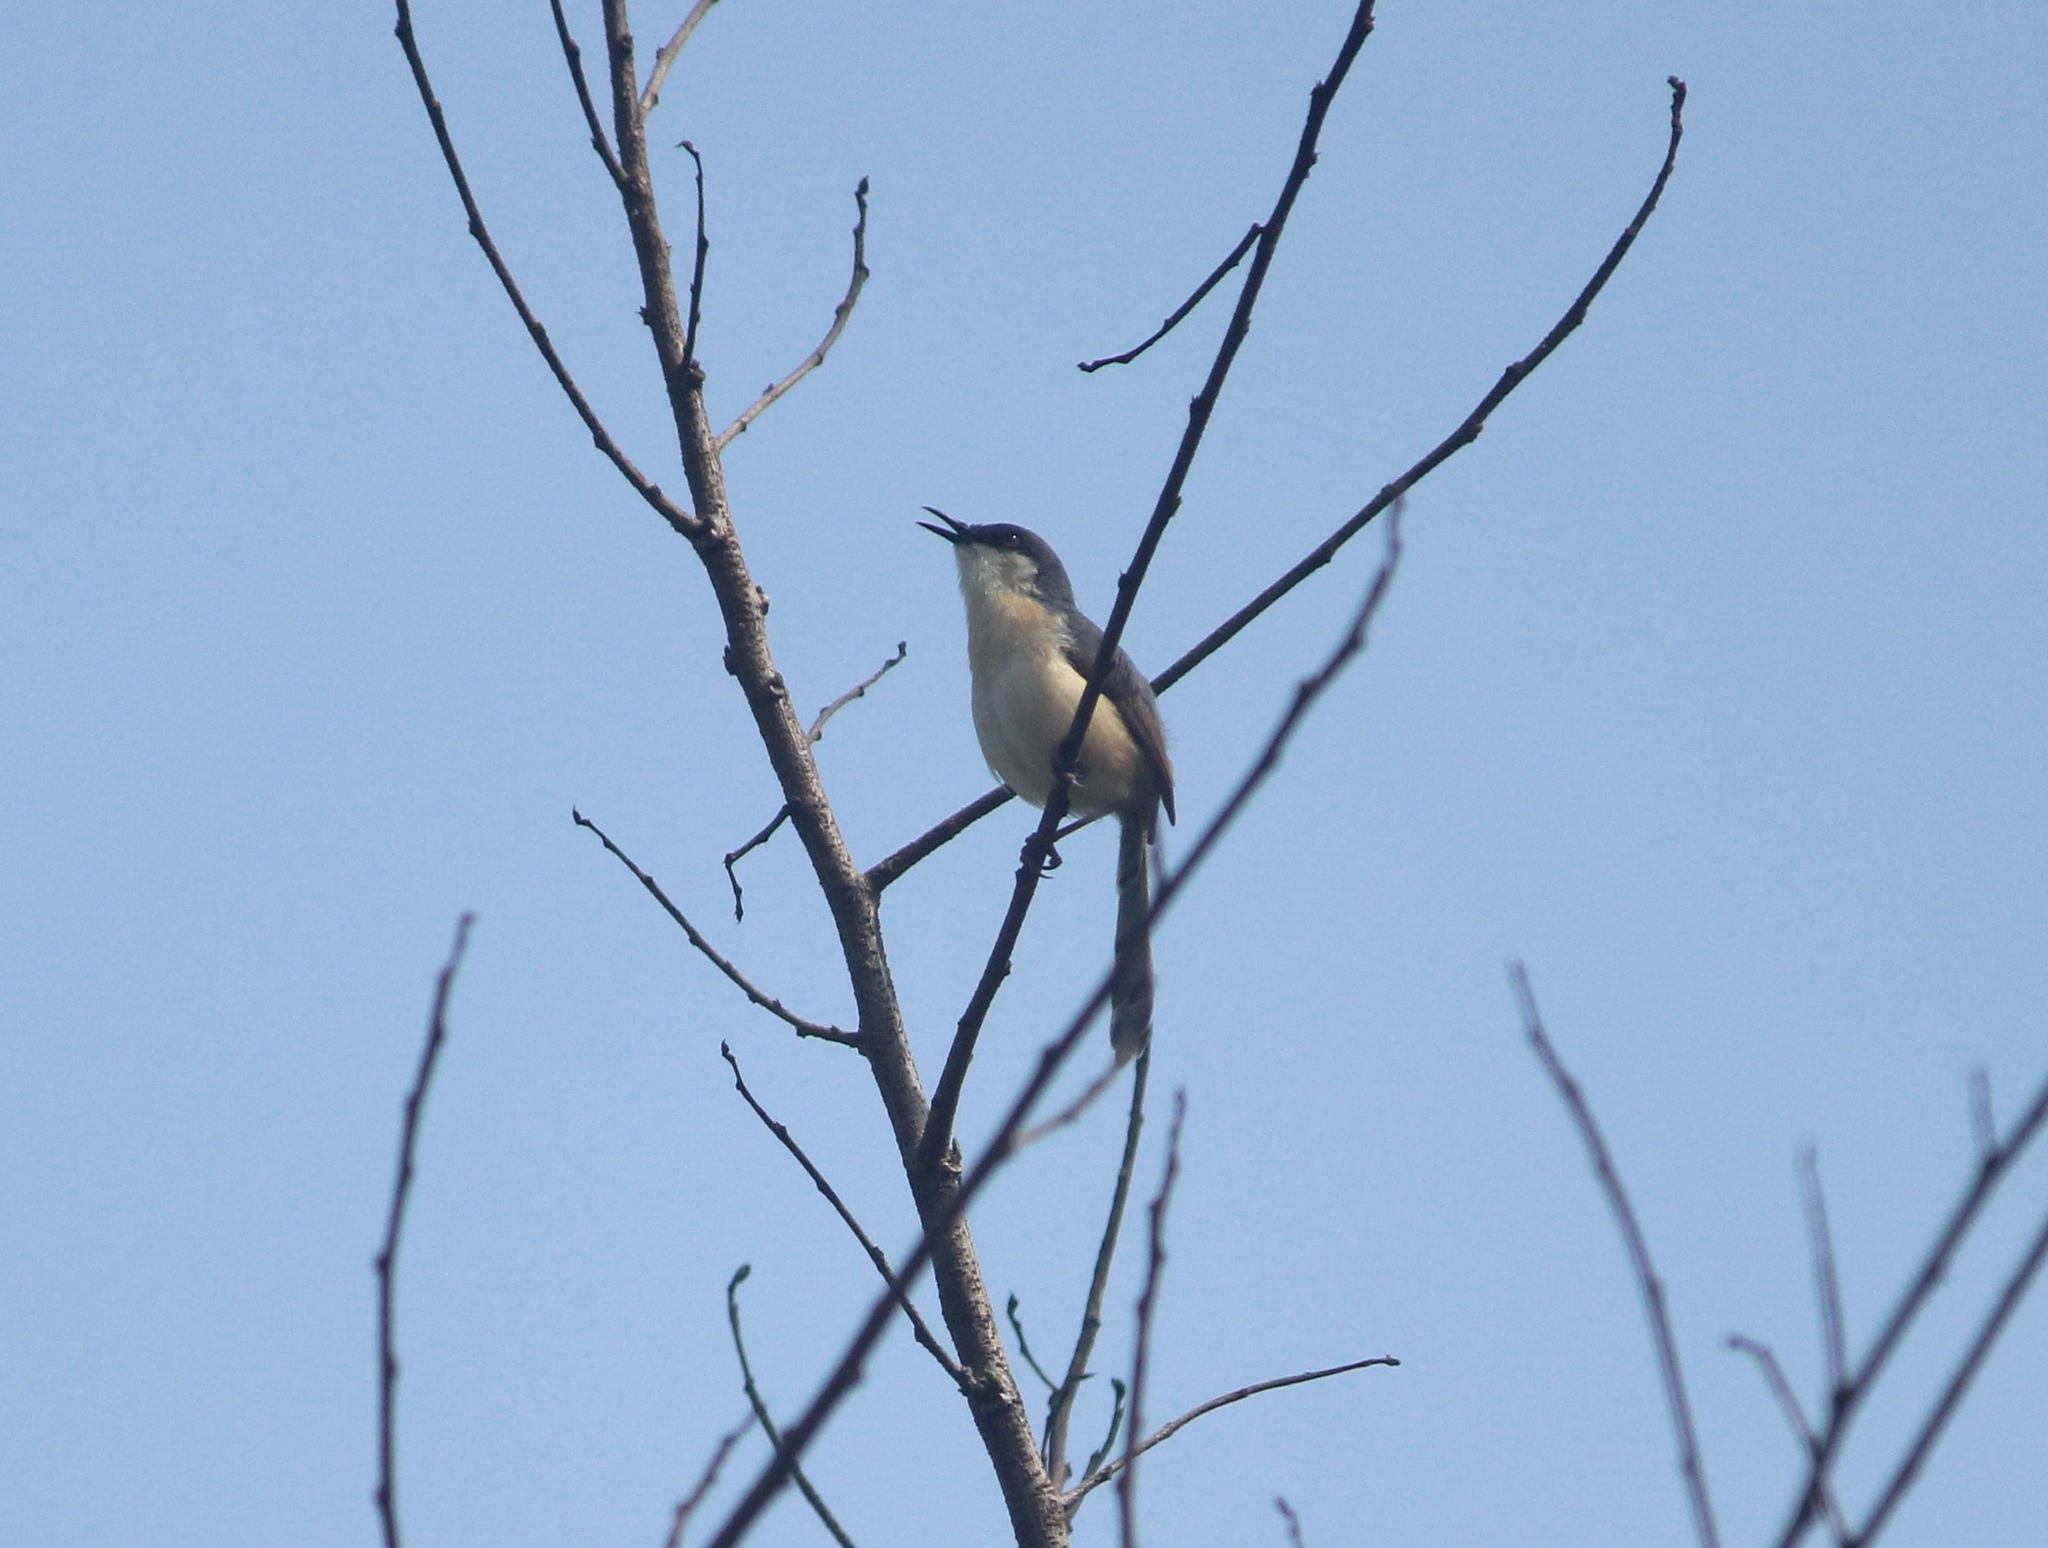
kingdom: Animalia
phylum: Chordata
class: Aves
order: Passeriformes
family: Cisticolidae
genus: Prinia
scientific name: Prinia socialis
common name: Ashy prinia
